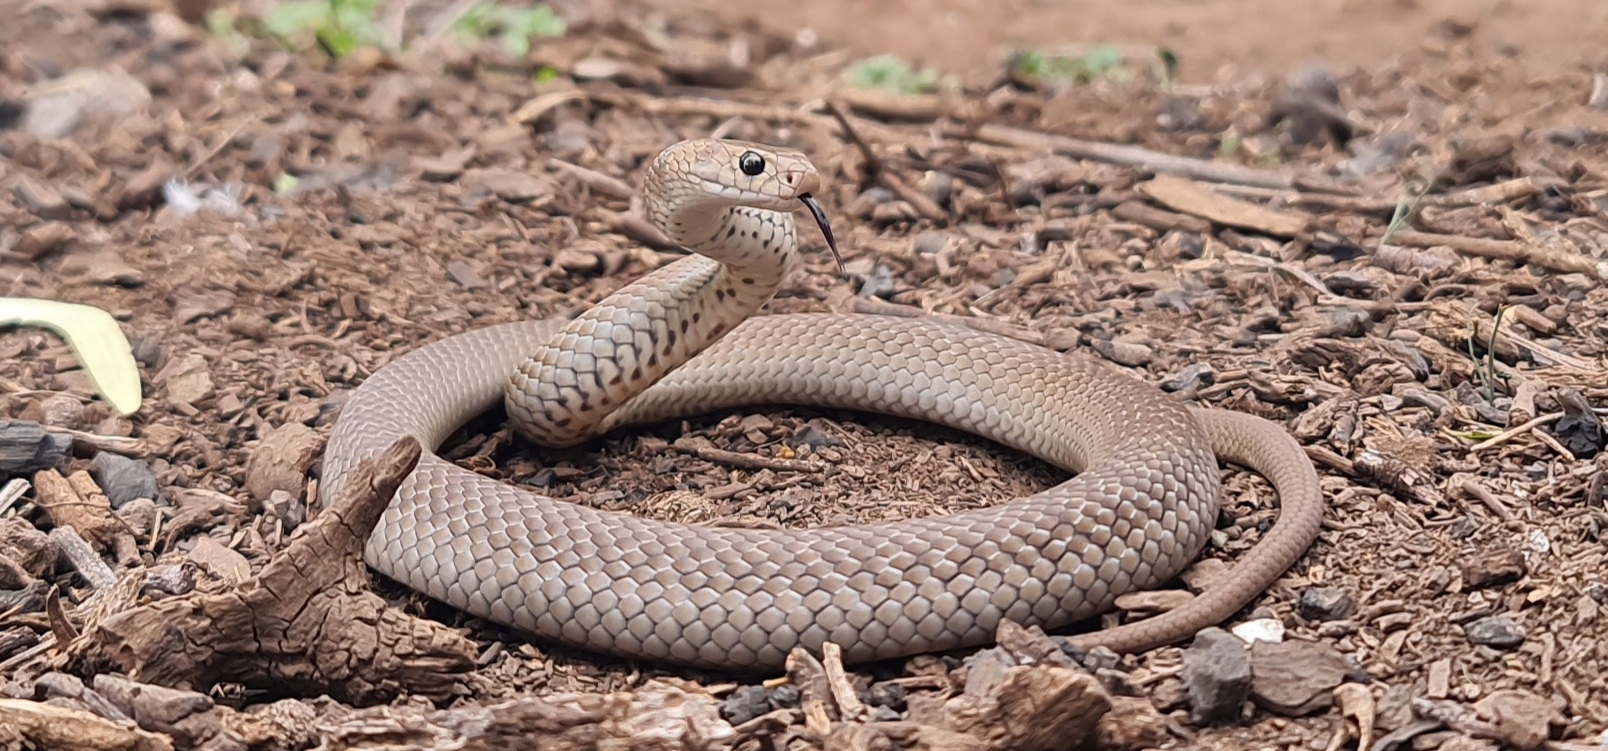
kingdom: Animalia
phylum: Chordata
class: Squamata
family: Elapidae
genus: Pseudonaja
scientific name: Pseudonaja textilis
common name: Eastern brown snake
